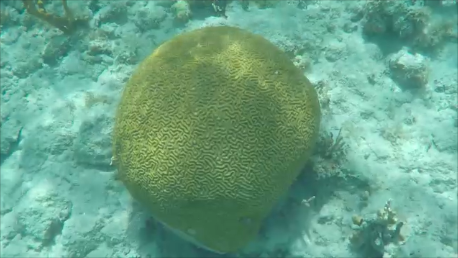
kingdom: Animalia
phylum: Cnidaria
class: Anthozoa
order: Scleractinia
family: Faviidae
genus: Pseudodiploria
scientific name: Pseudodiploria strigosa
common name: Symmetrical brain coral
